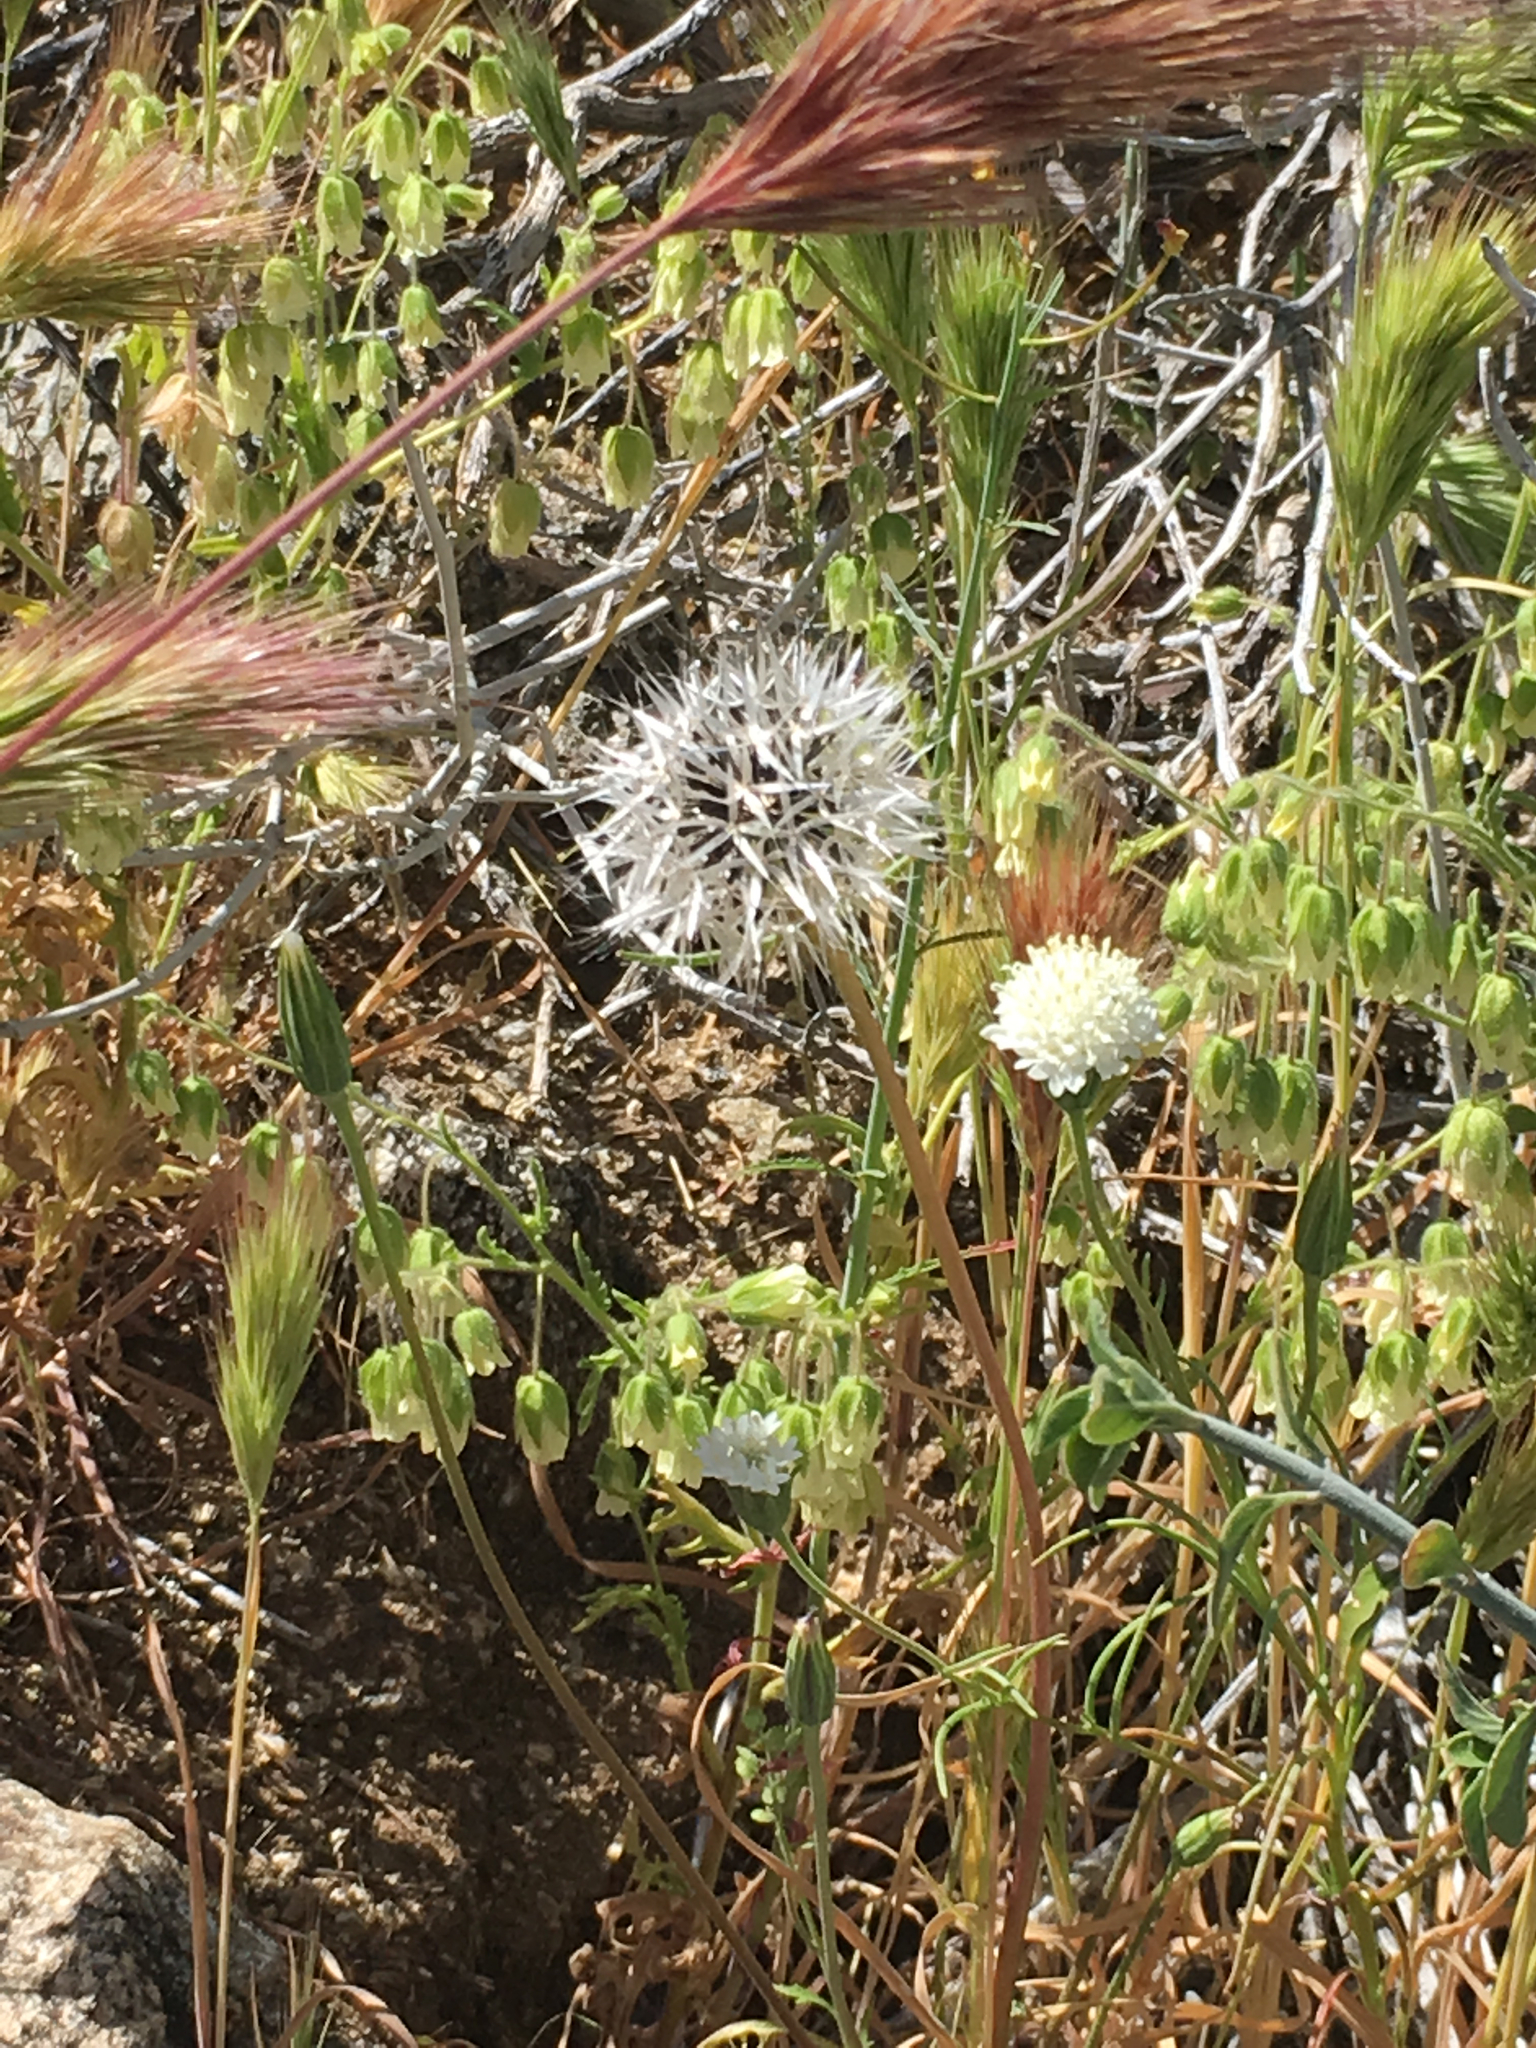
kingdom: Plantae
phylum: Tracheophyta
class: Magnoliopsida
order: Asterales
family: Asteraceae
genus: Microseris
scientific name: Microseris lindleyi
